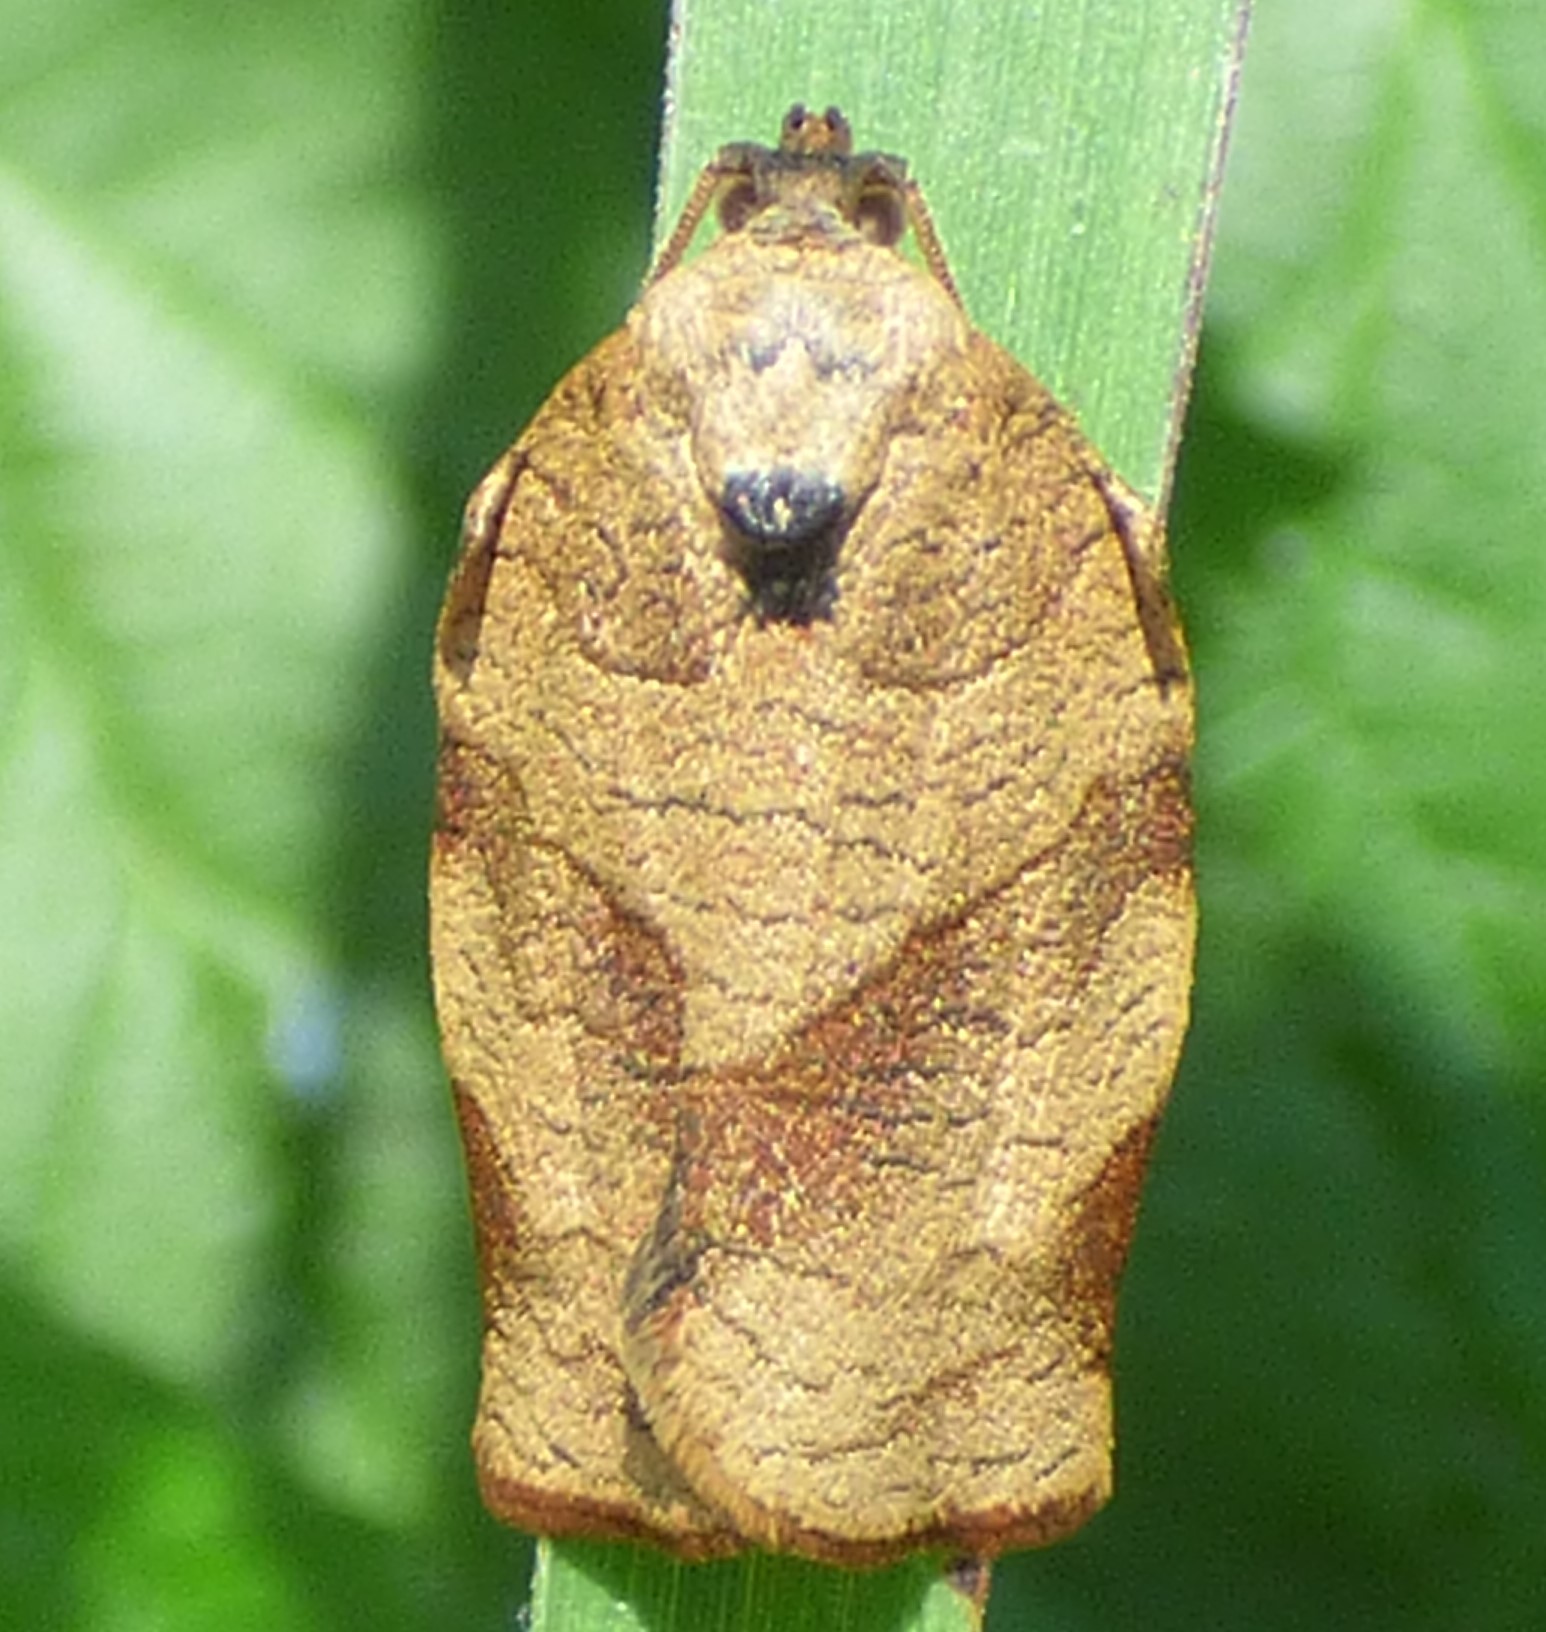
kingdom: Animalia
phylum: Arthropoda
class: Insecta
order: Lepidoptera
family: Tortricidae
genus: Choristoneura
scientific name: Choristoneura rosaceana
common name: Oblique-banded leafroller moth
